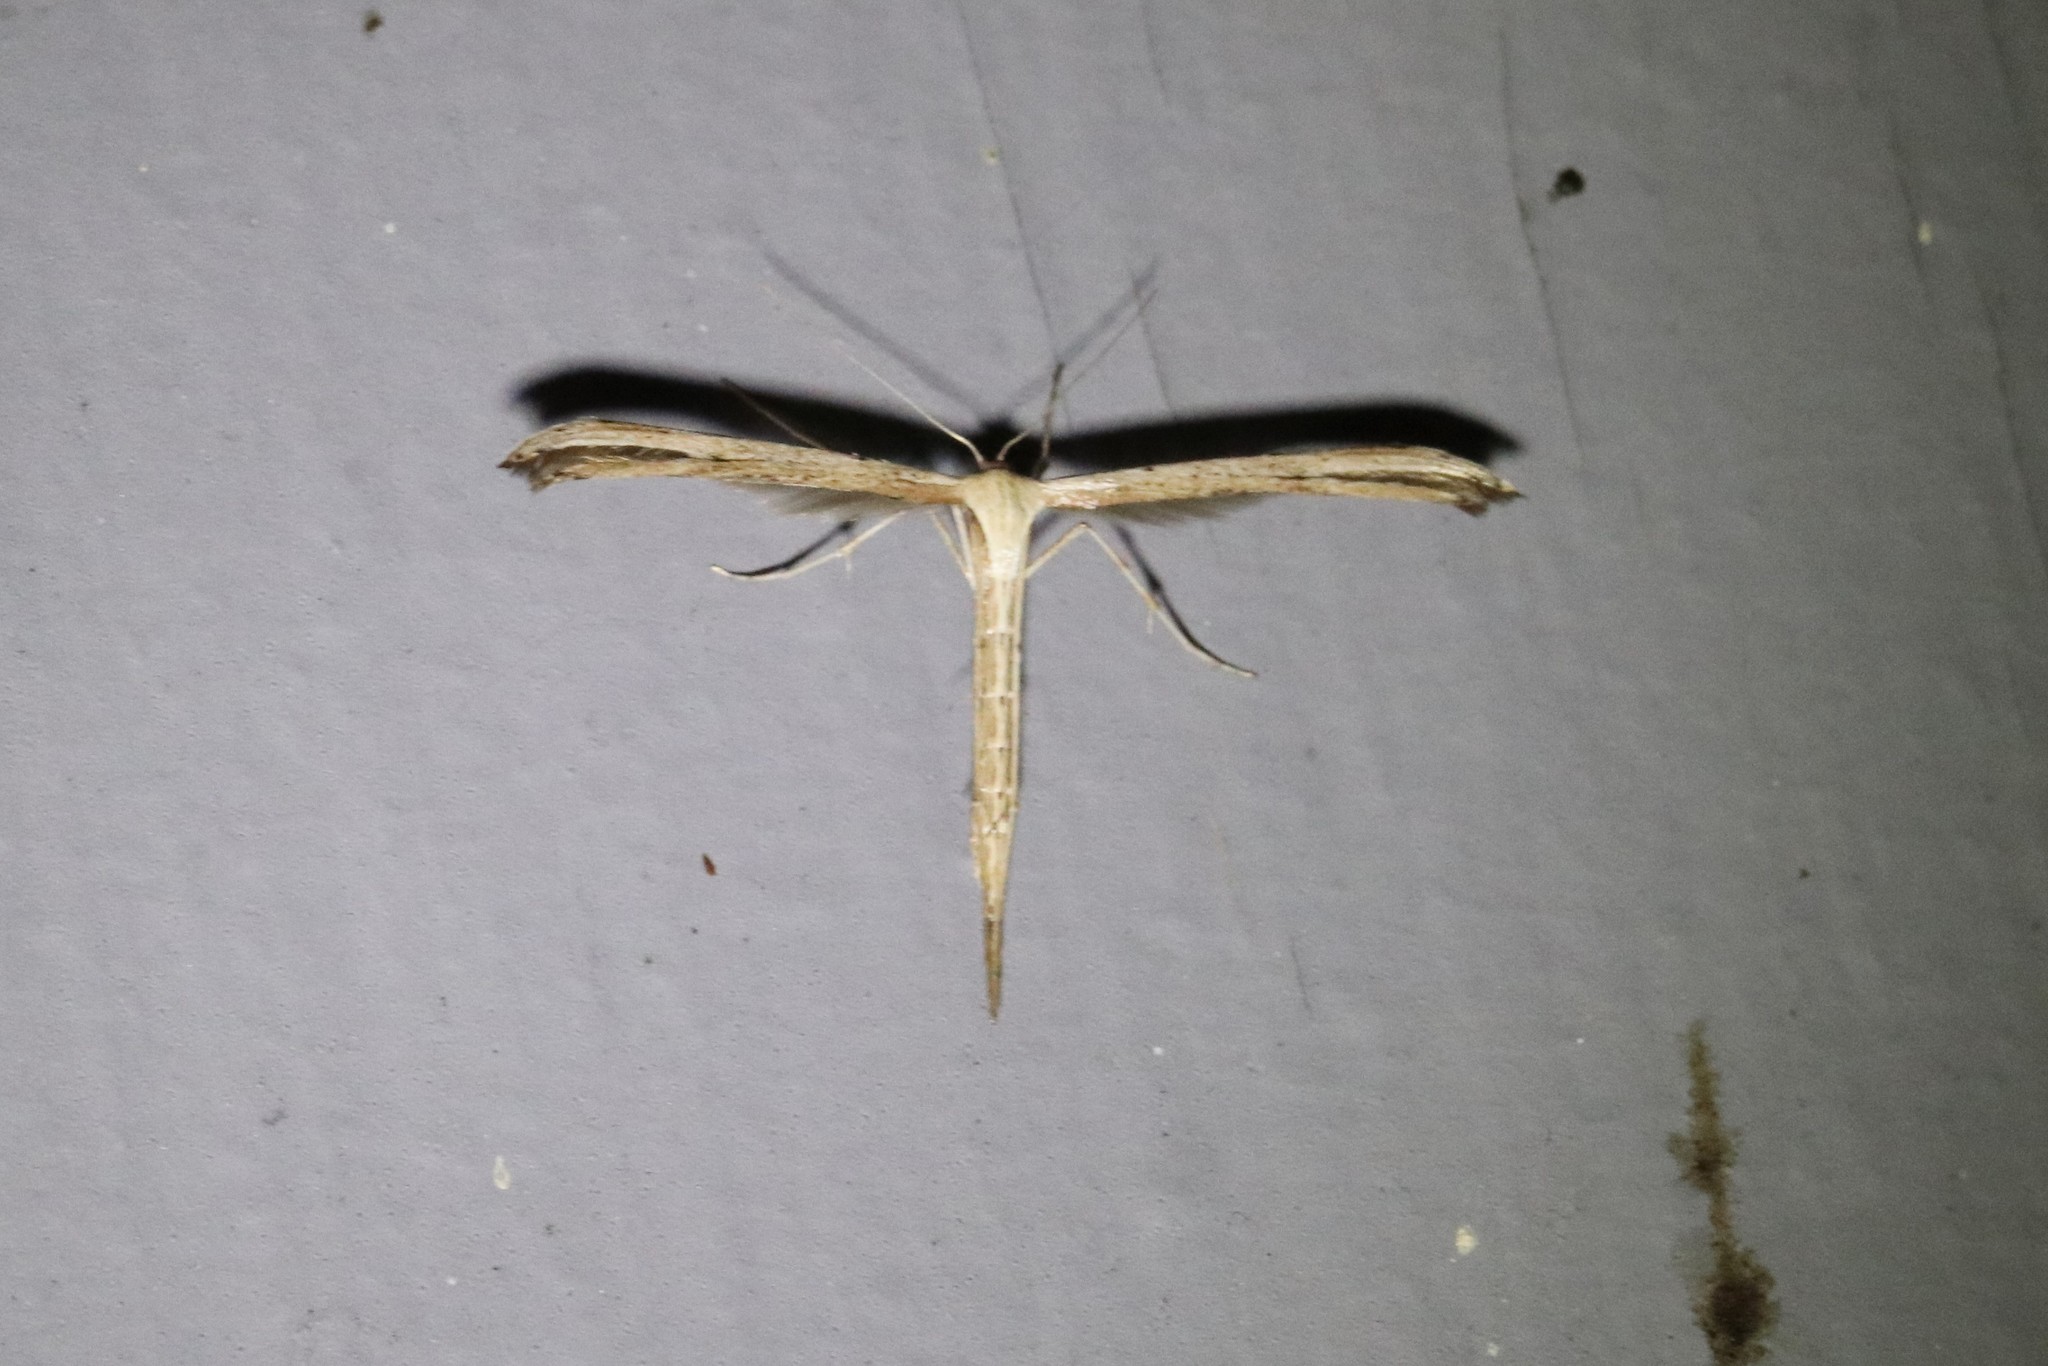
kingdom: Animalia
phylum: Arthropoda
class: Insecta
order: Lepidoptera
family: Pterophoridae
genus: Emmelina
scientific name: Emmelina monodactyla
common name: Common plume
